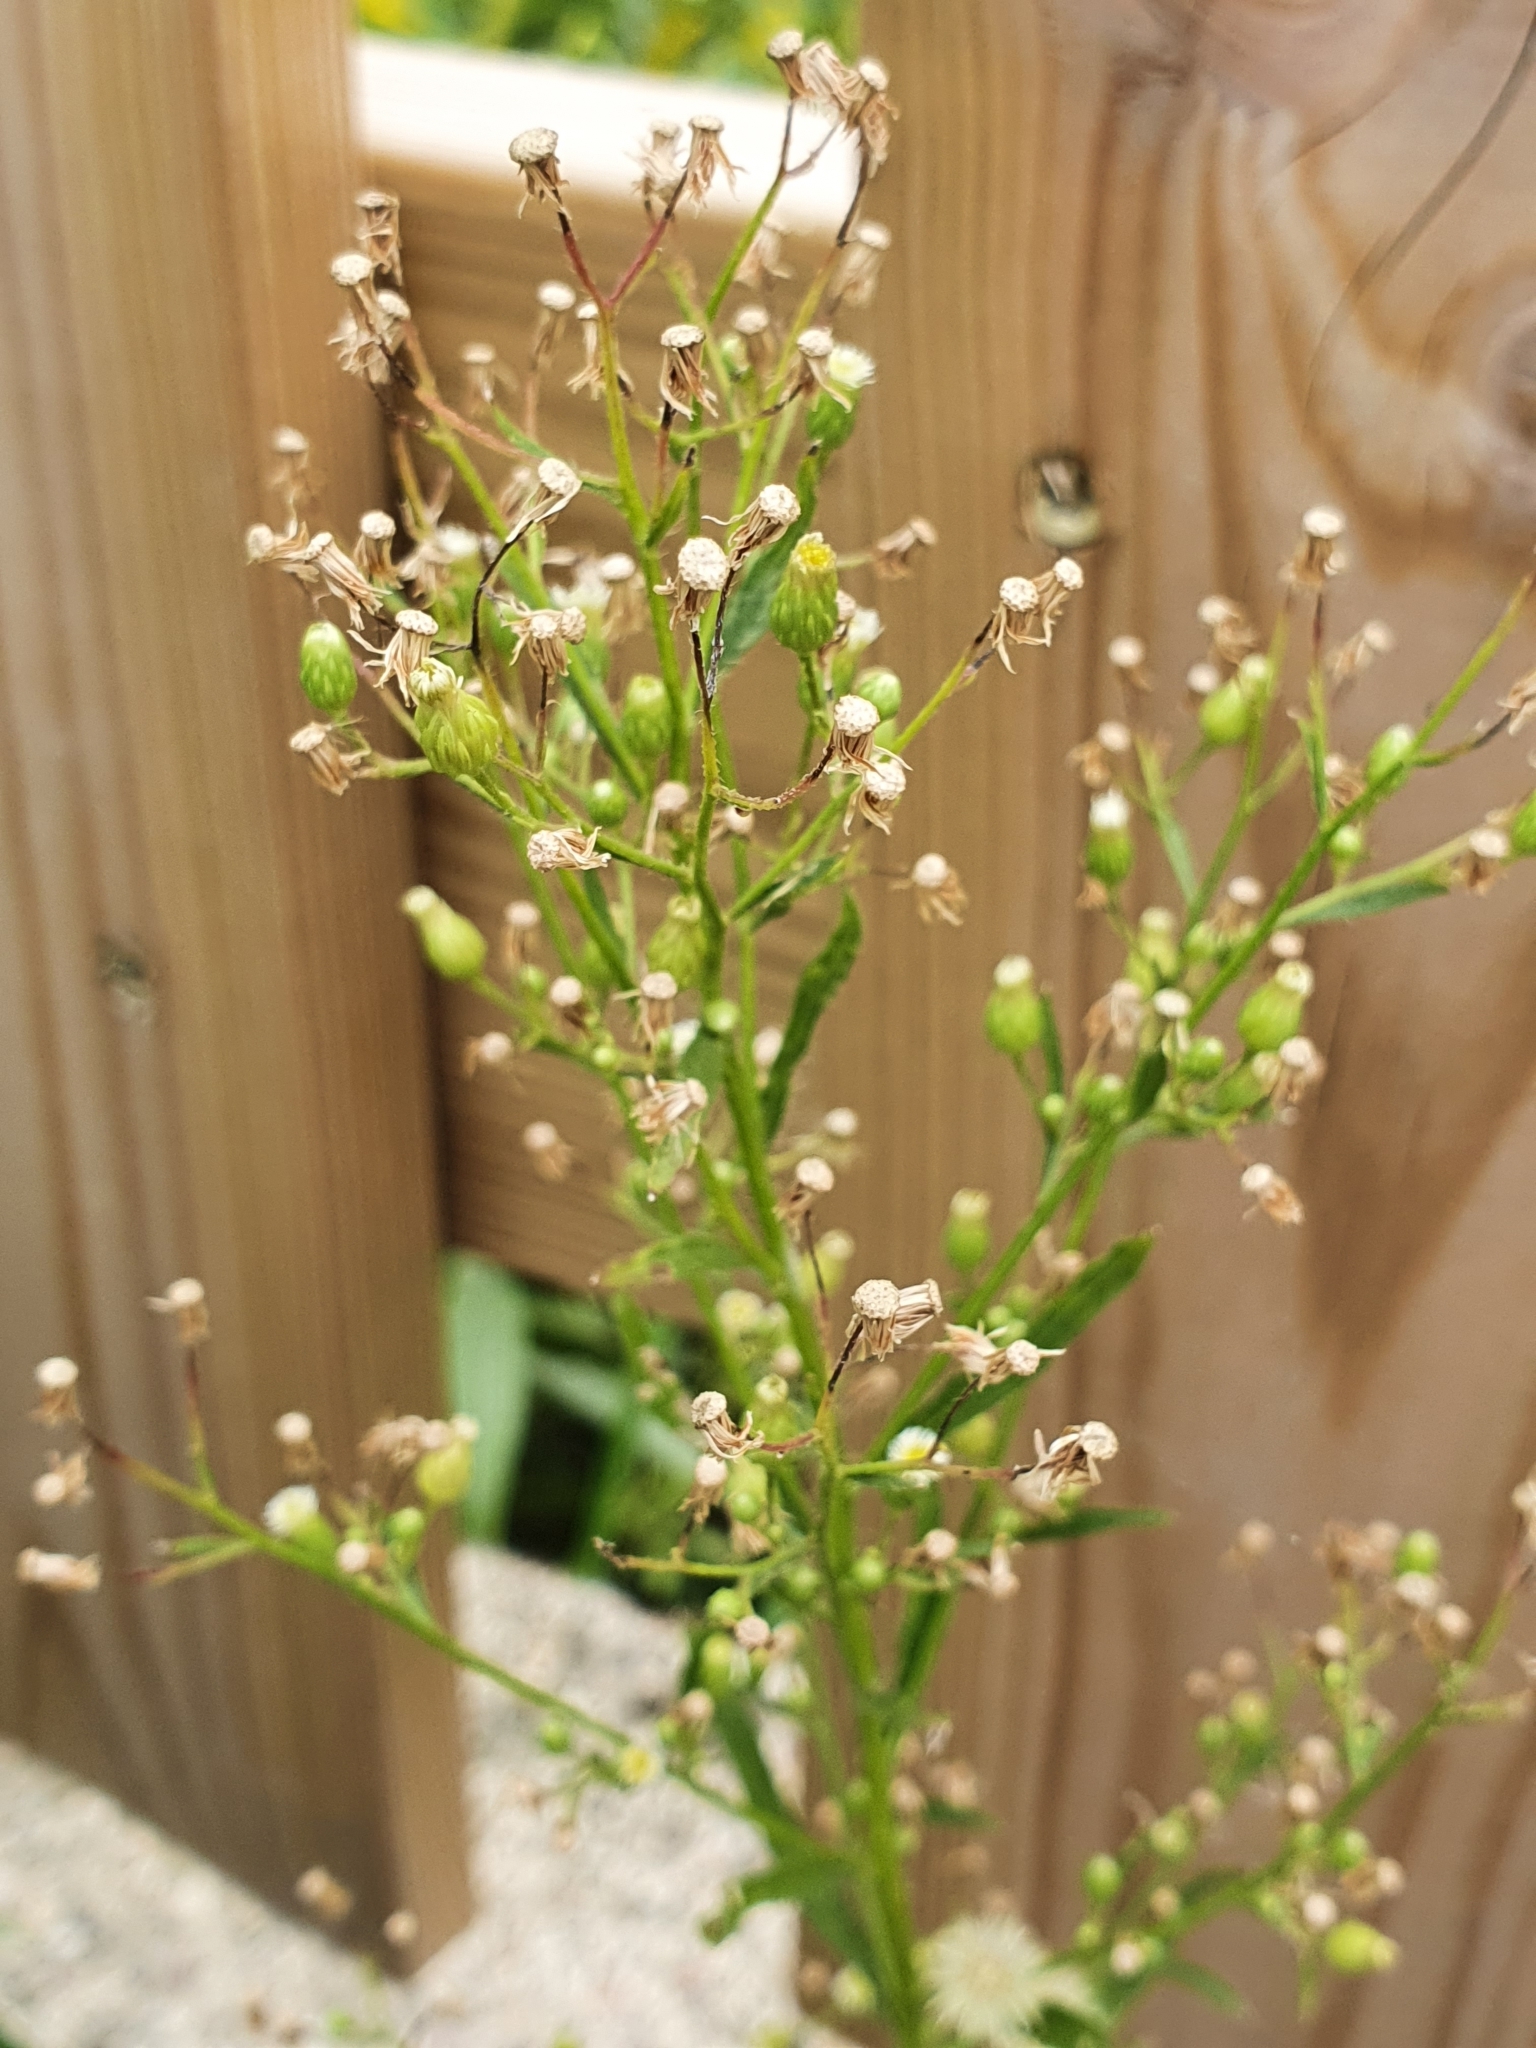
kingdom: Plantae
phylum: Tracheophyta
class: Magnoliopsida
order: Asterales
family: Asteraceae
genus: Erigeron
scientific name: Erigeron canadensis
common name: Canadian fleabane
